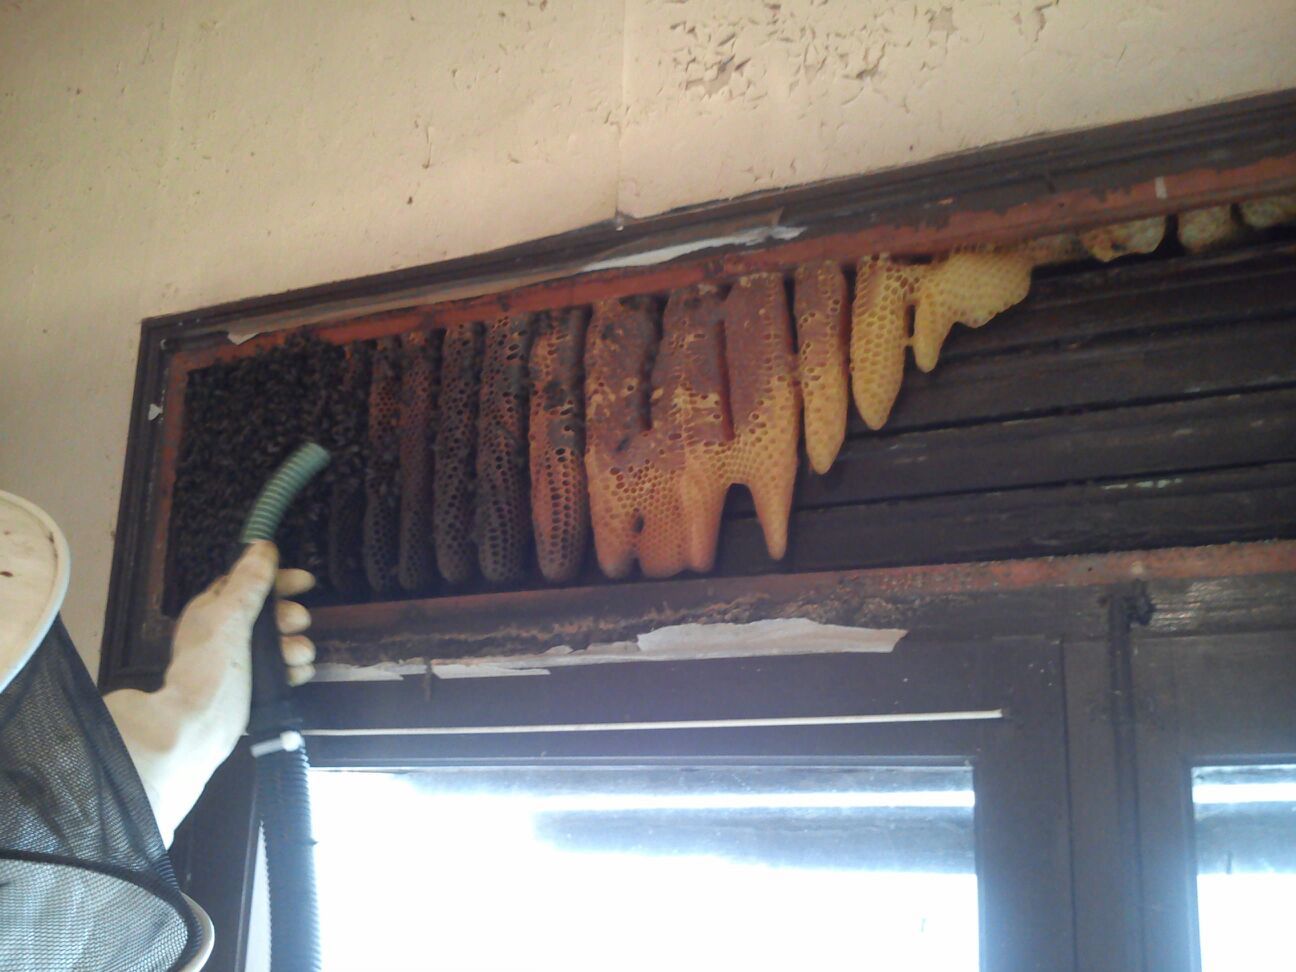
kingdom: Animalia
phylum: Arthropoda
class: Insecta
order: Hymenoptera
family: Apidae
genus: Apis
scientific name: Apis mellifera
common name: Honey bee
